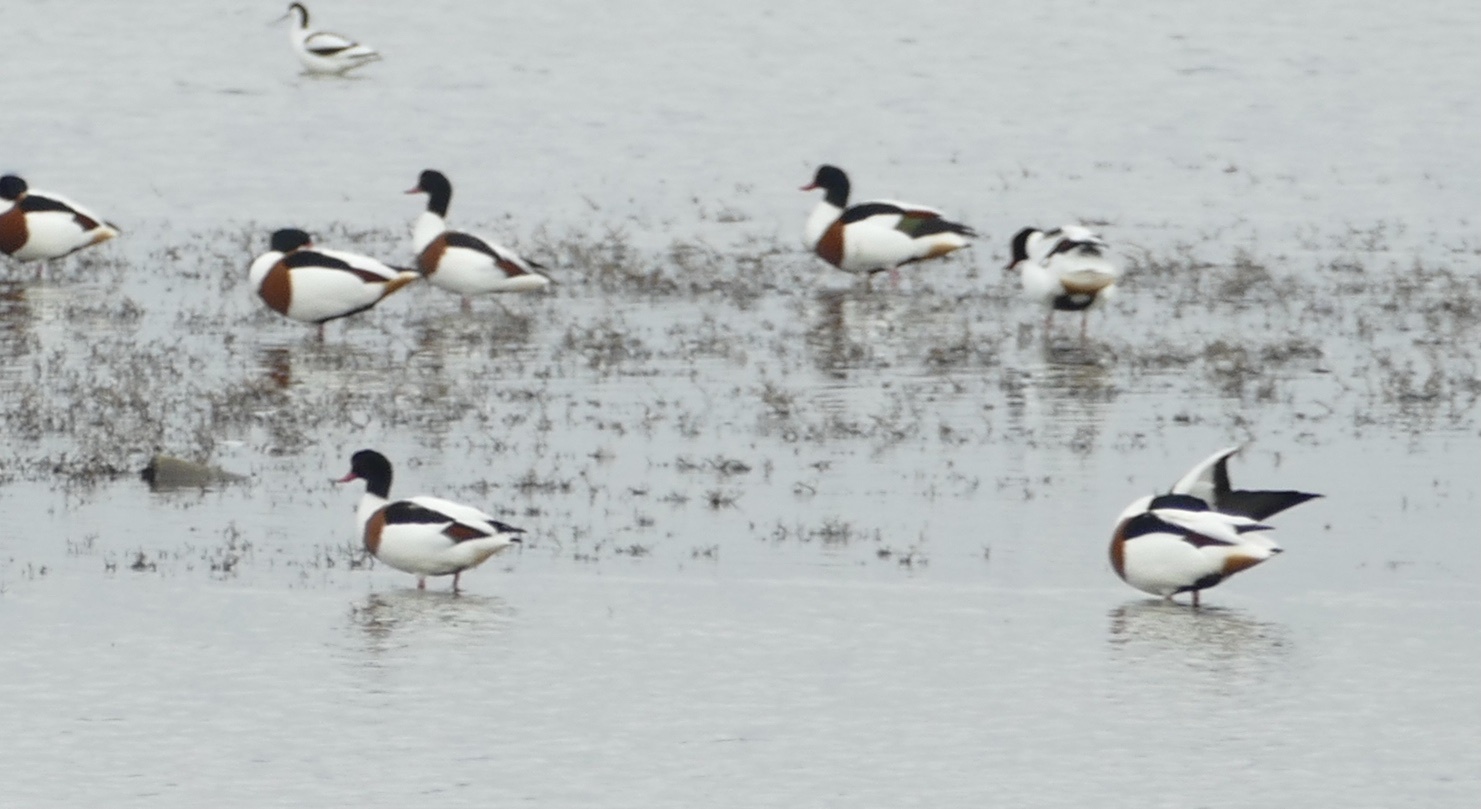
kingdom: Animalia
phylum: Chordata
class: Aves
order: Anseriformes
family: Anatidae
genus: Tadorna
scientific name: Tadorna tadorna
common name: Common shelduck
